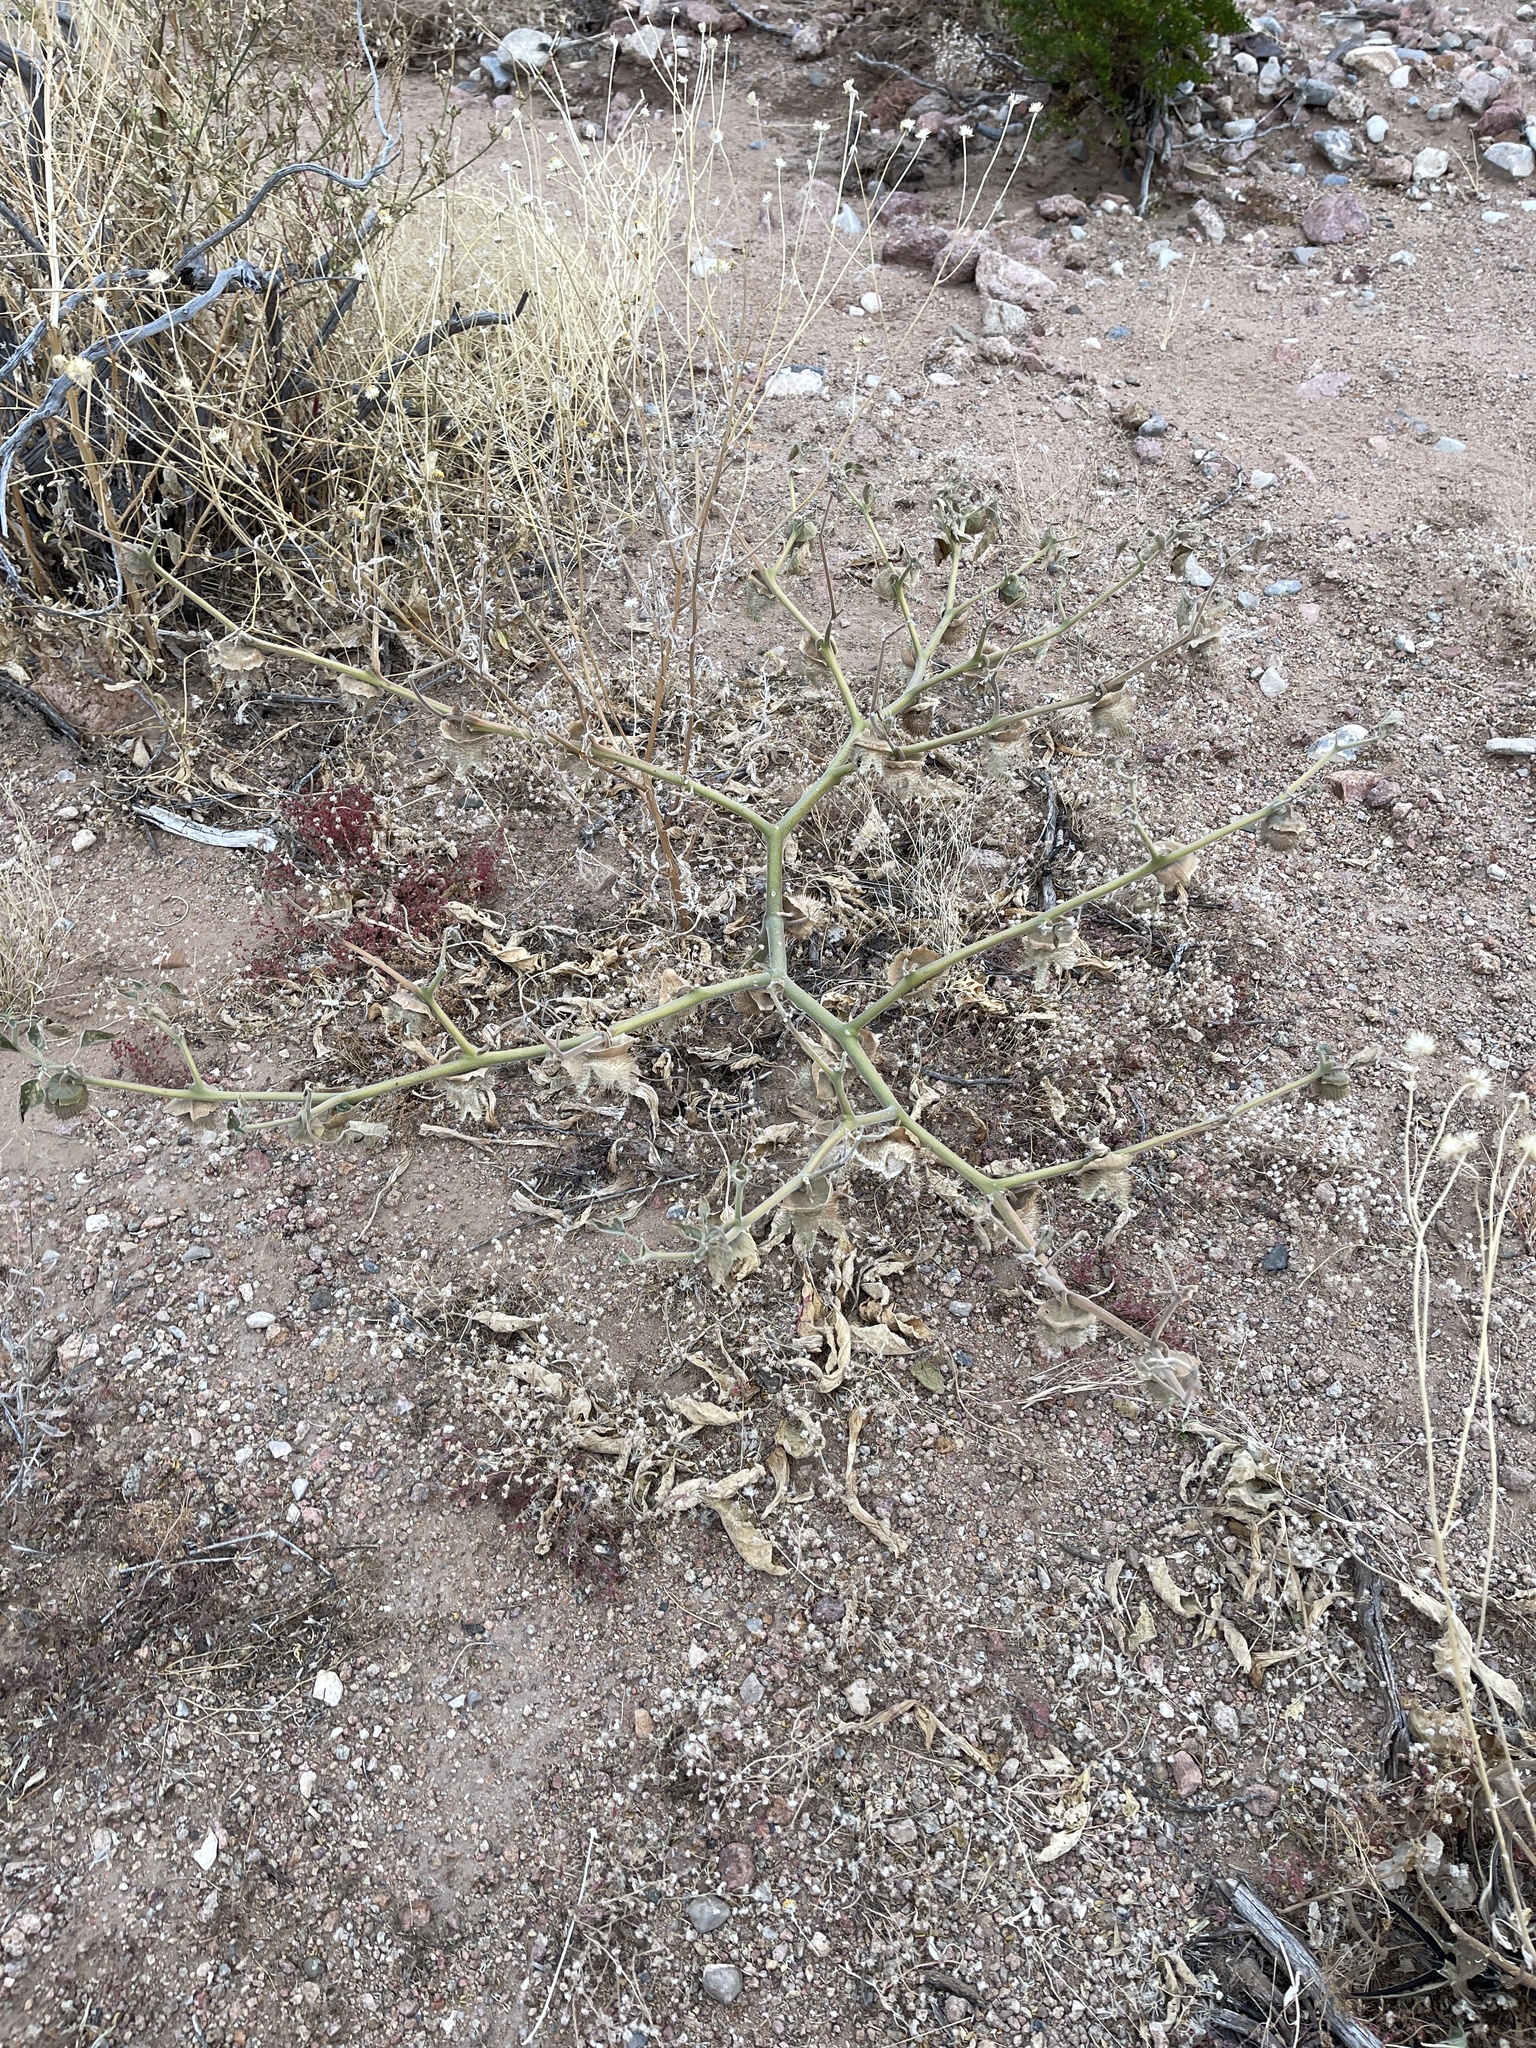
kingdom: Plantae
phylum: Tracheophyta
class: Magnoliopsida
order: Solanales
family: Solanaceae
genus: Datura
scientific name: Datura wrightii
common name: Sacred thorn-apple
